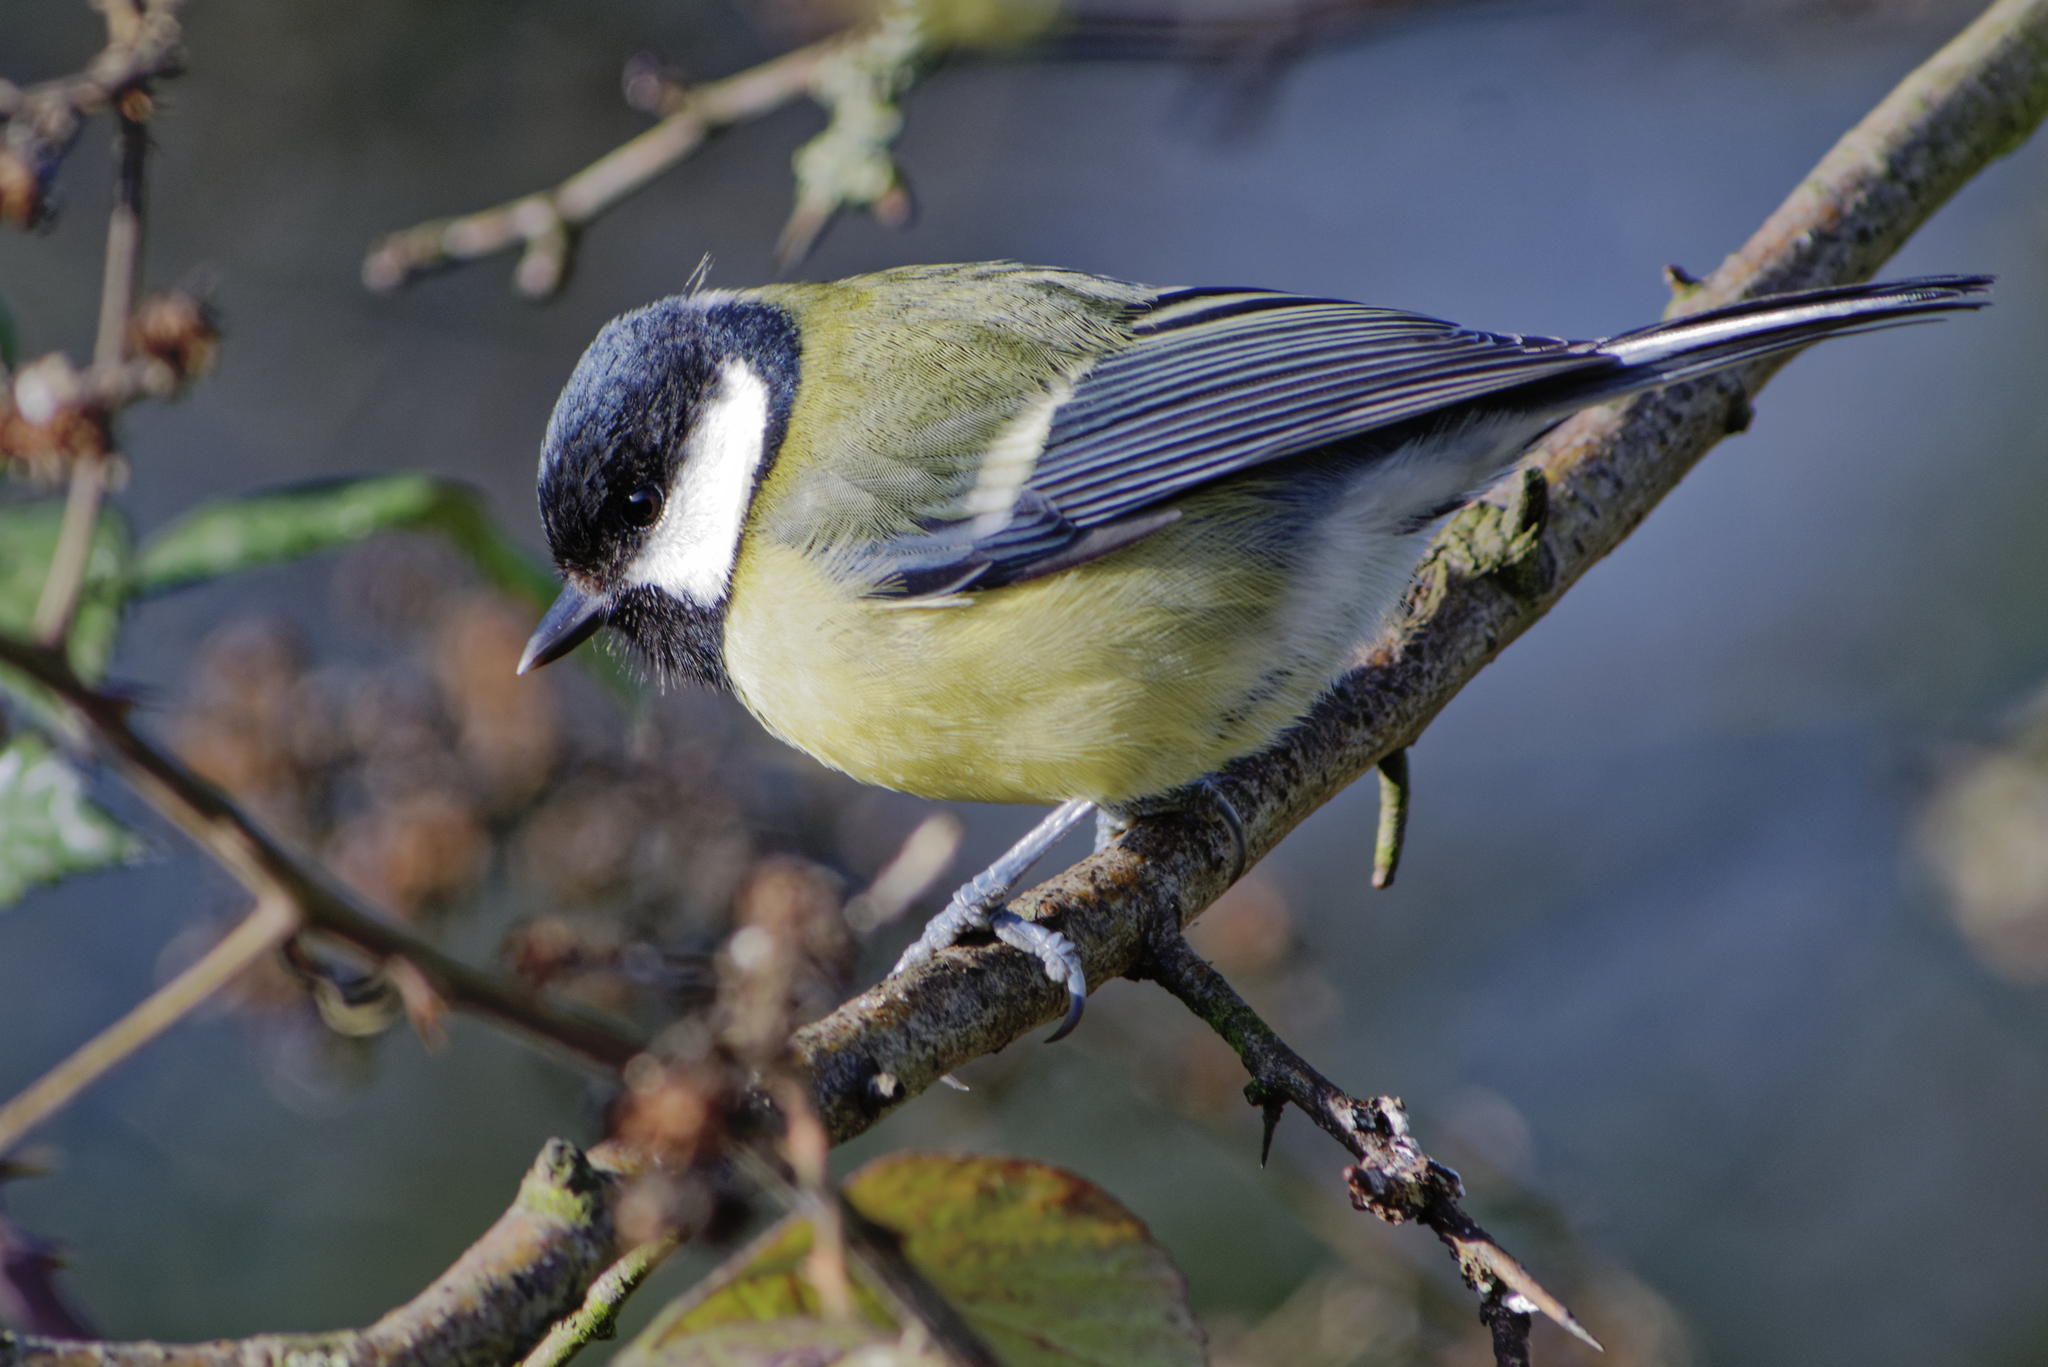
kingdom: Animalia
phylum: Chordata
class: Aves
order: Passeriformes
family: Paridae
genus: Parus
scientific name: Parus major
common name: Great tit
